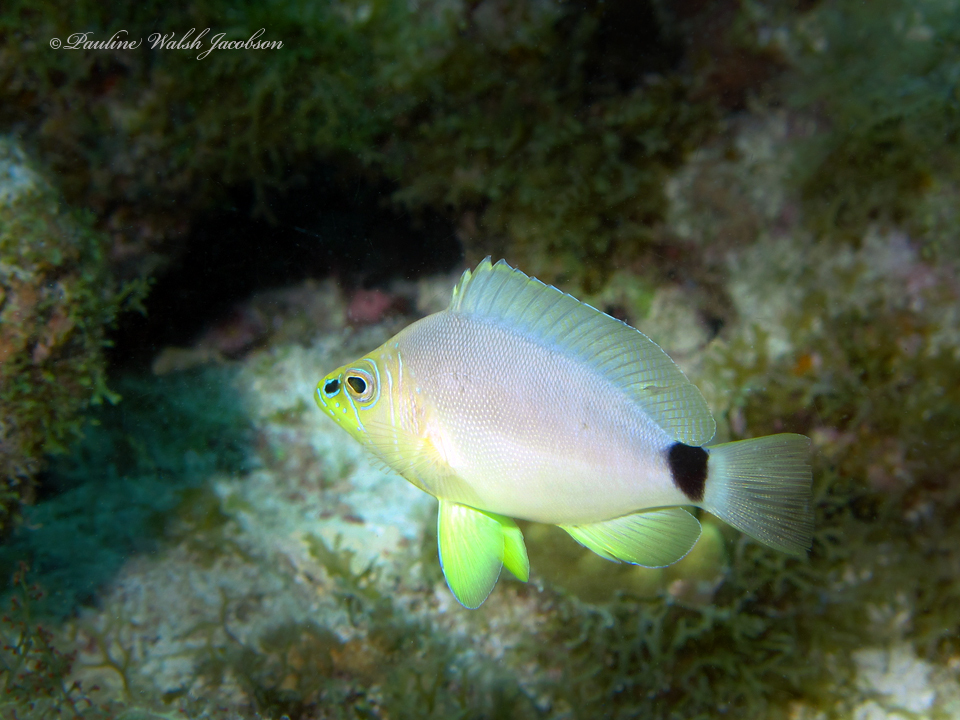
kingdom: Animalia
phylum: Chordata
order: Perciformes
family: Serranidae
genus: Hypoplectrus
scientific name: Hypoplectrus unicolor
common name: Butter hamlet
